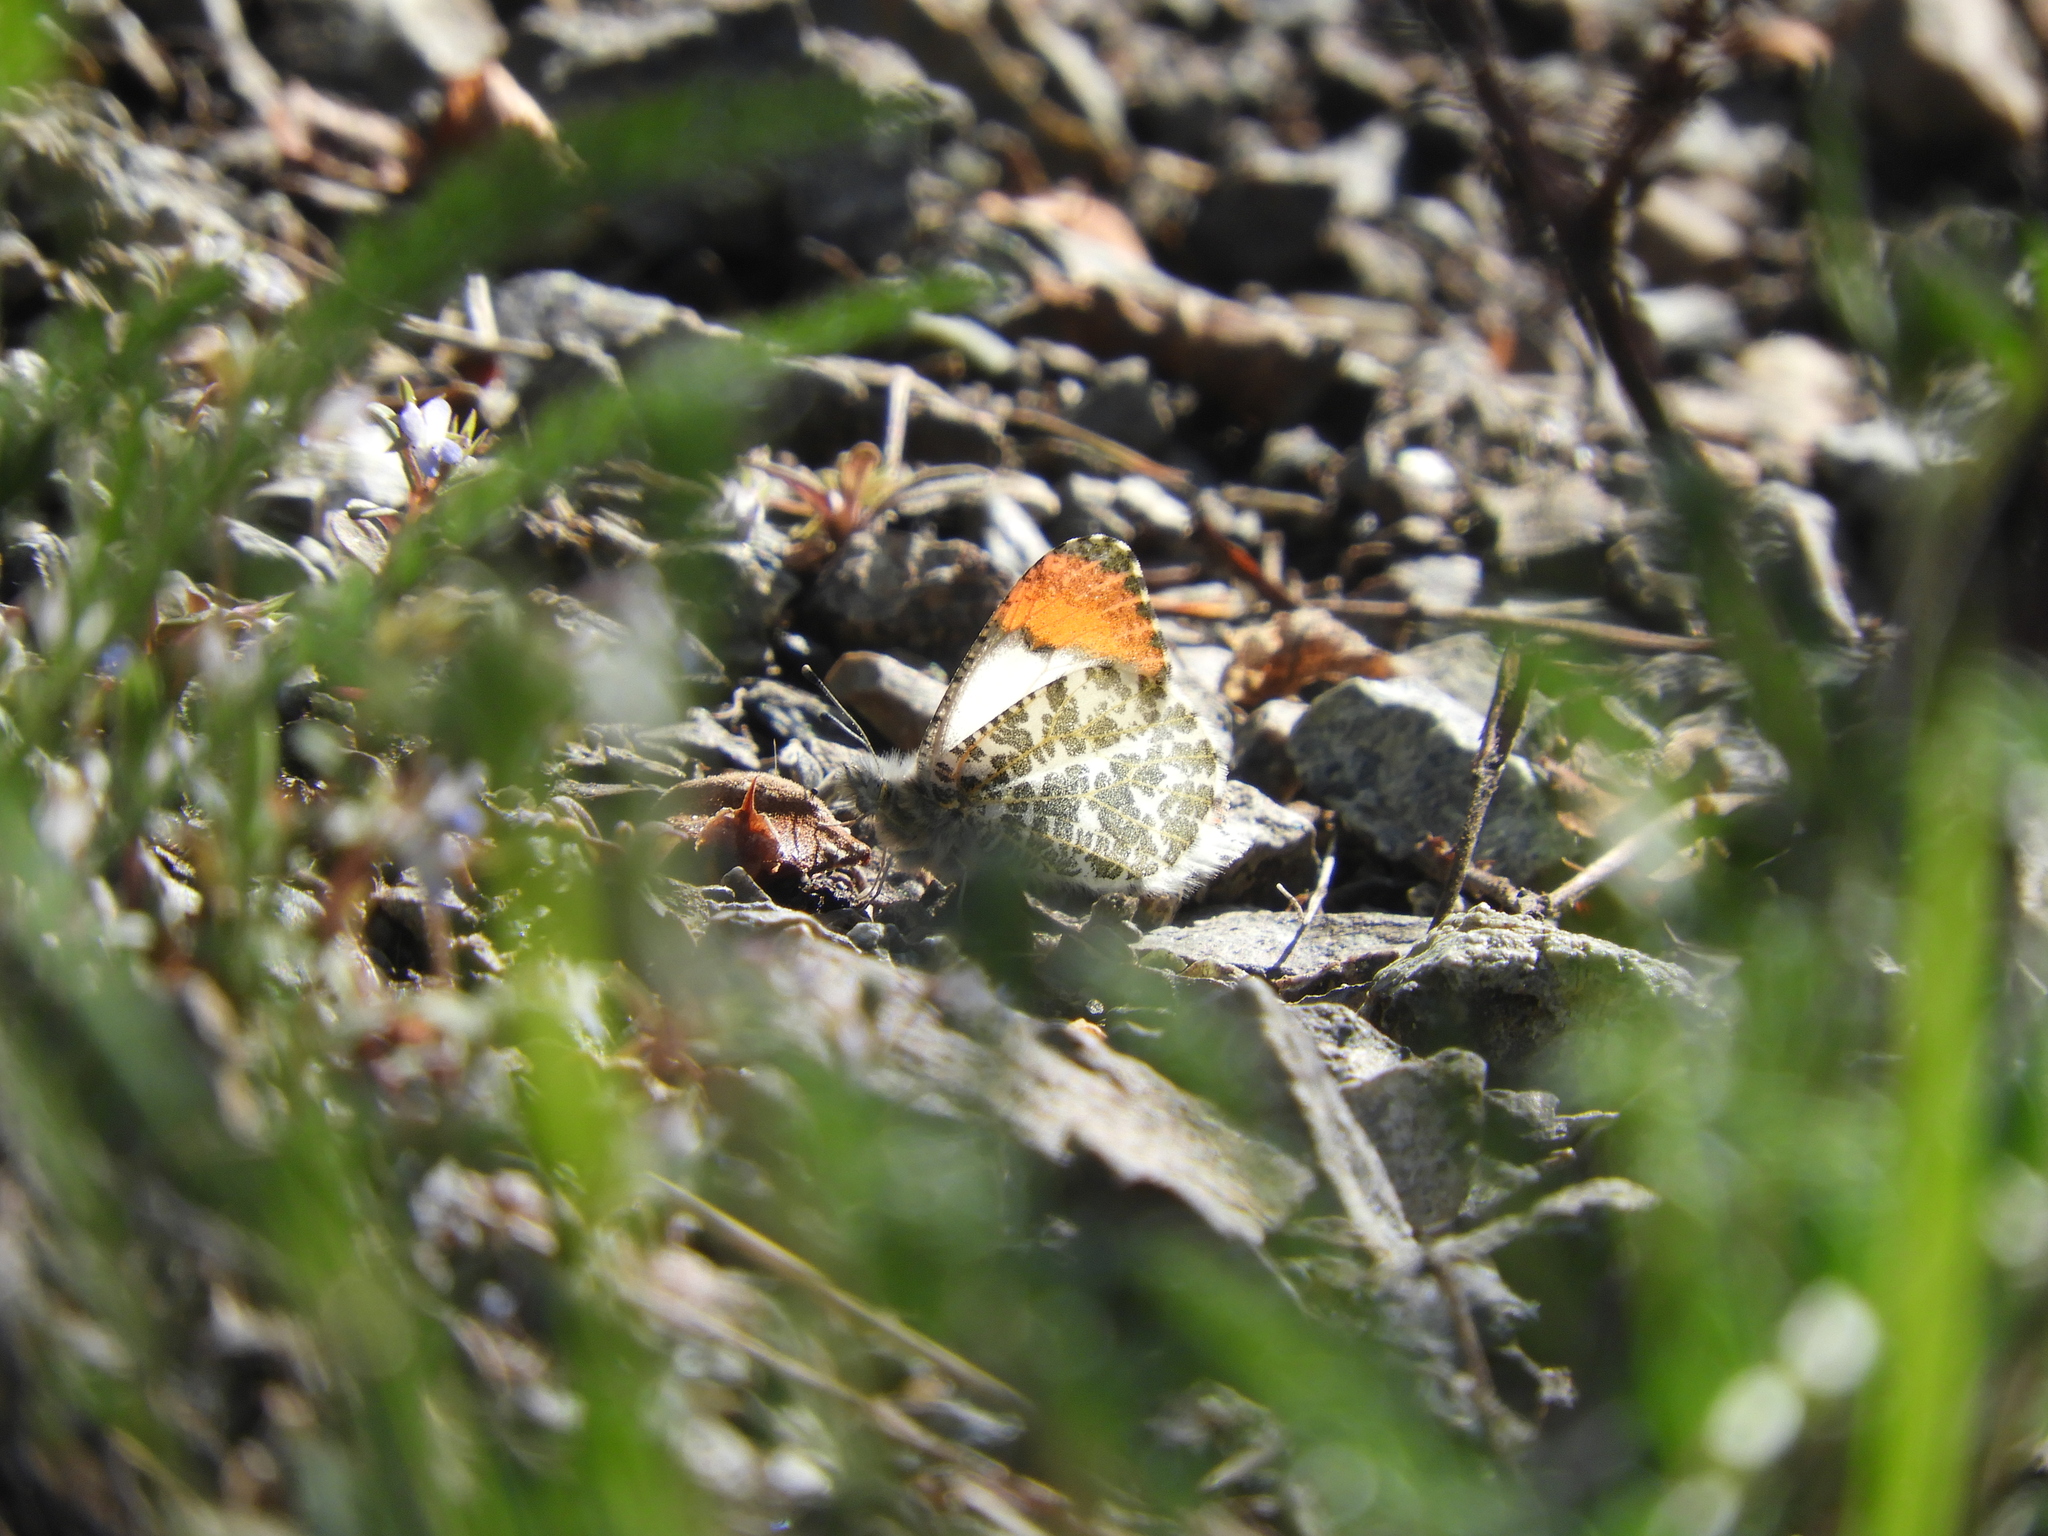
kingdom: Animalia
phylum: Arthropoda
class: Insecta
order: Lepidoptera
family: Pieridae
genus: Anthocharis
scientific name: Anthocharis julia
